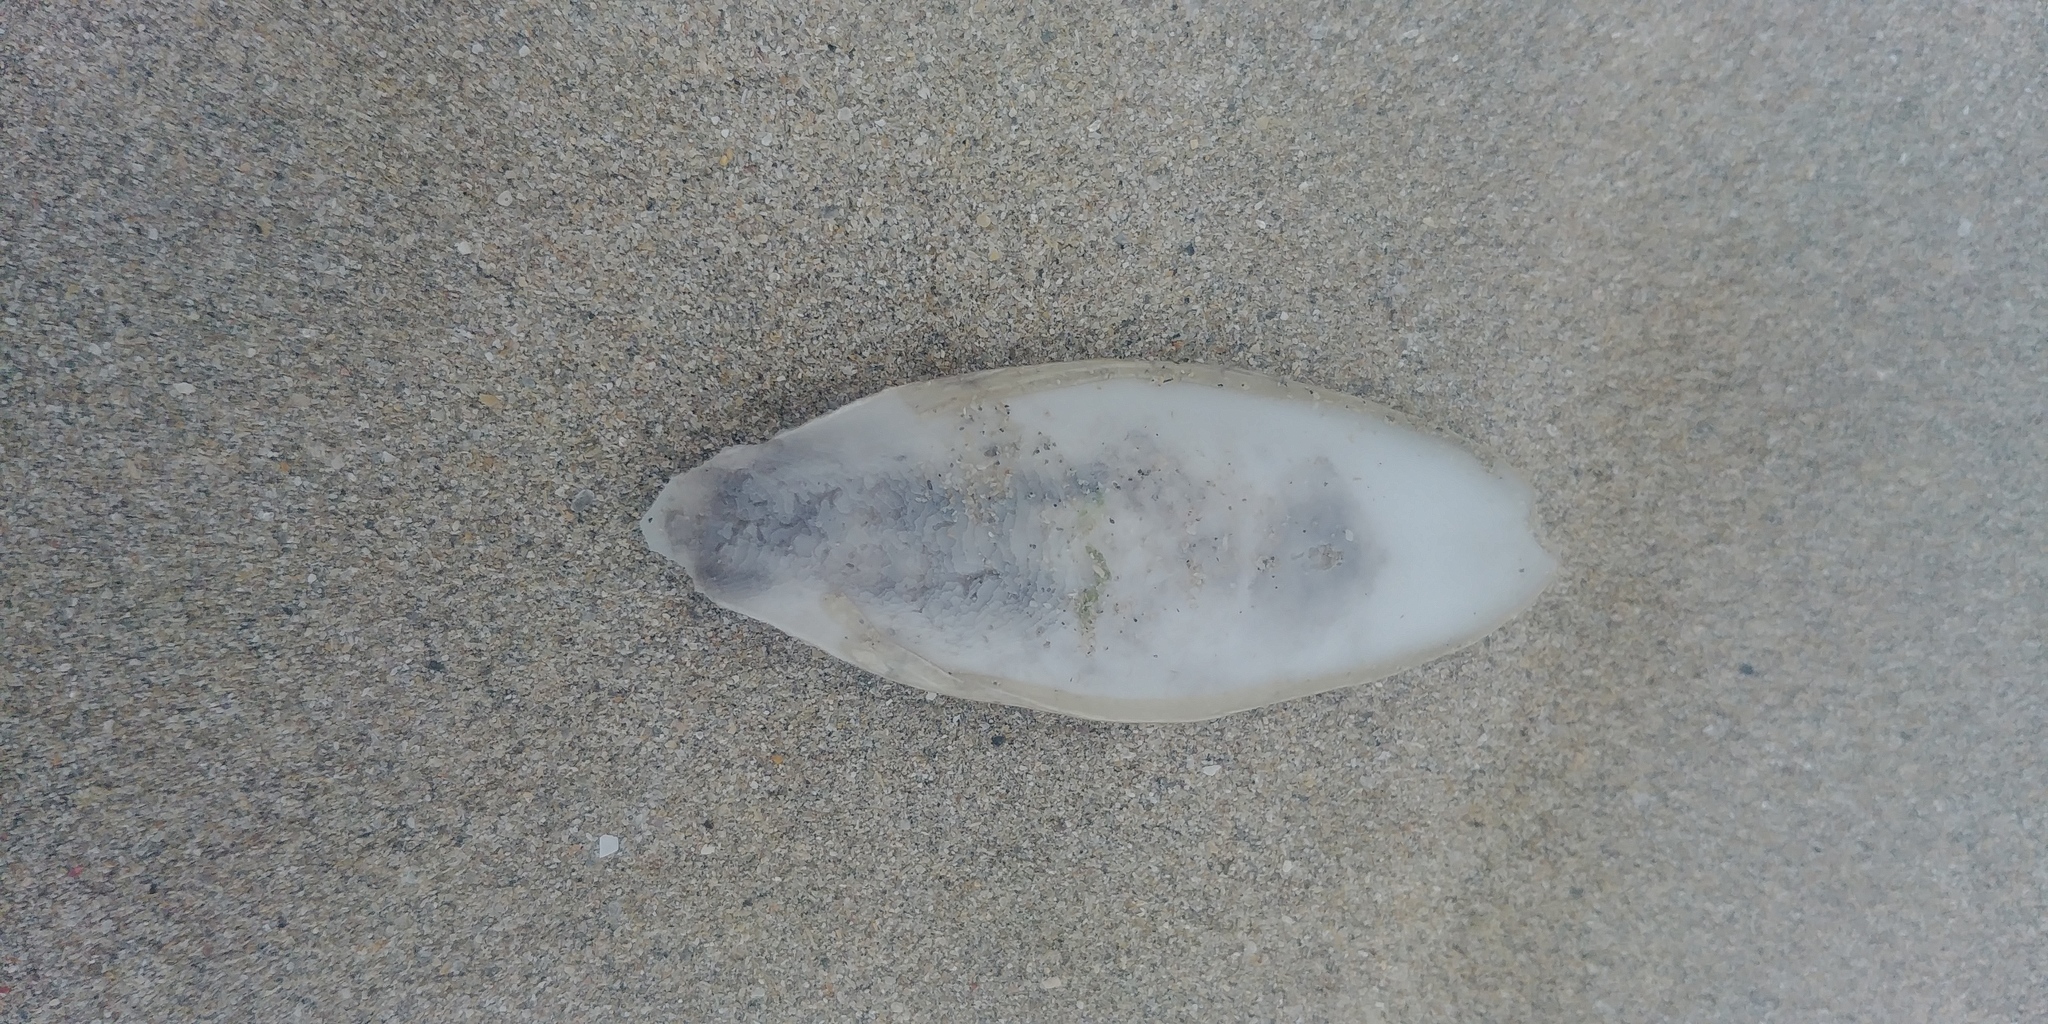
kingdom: Animalia
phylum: Mollusca
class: Cephalopoda
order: Sepiida
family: Sepiidae
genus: Sepia
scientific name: Sepia officinalis
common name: Common cuttlefish
